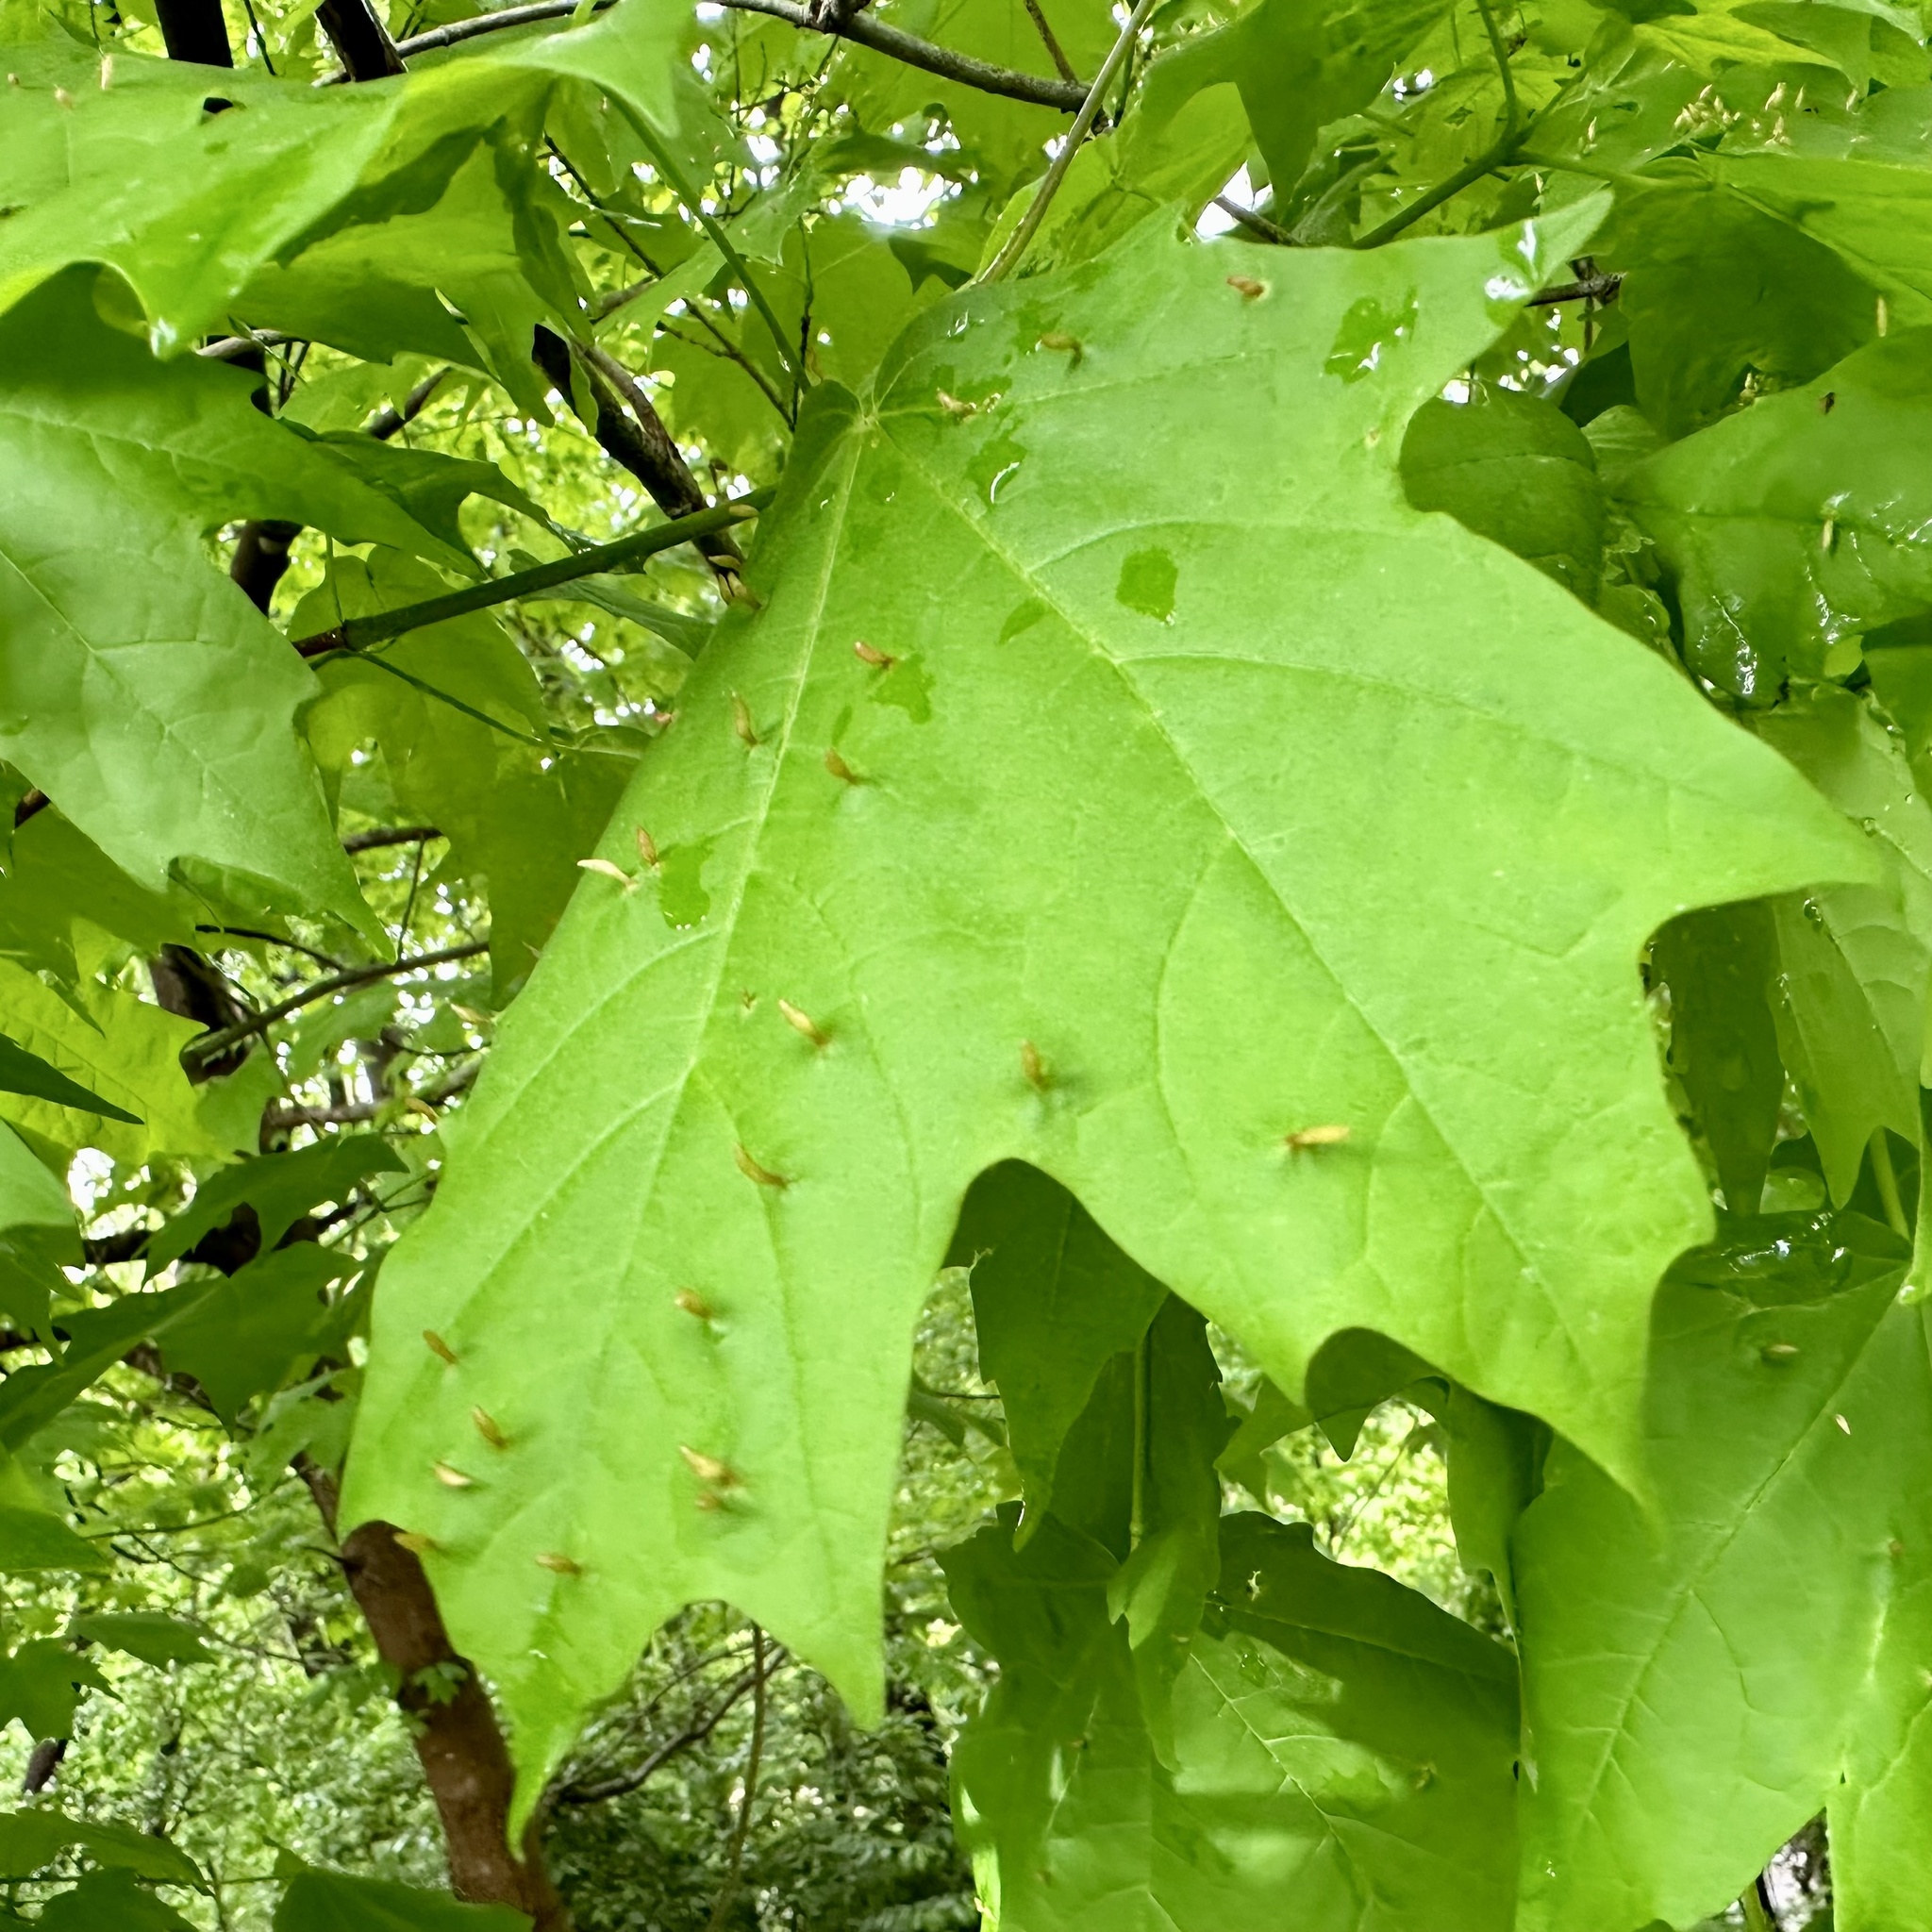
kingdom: Animalia
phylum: Arthropoda
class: Arachnida
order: Trombidiformes
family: Eriophyidae
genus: Vasates
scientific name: Vasates aceriscrumena
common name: Maple spindle gall mite
